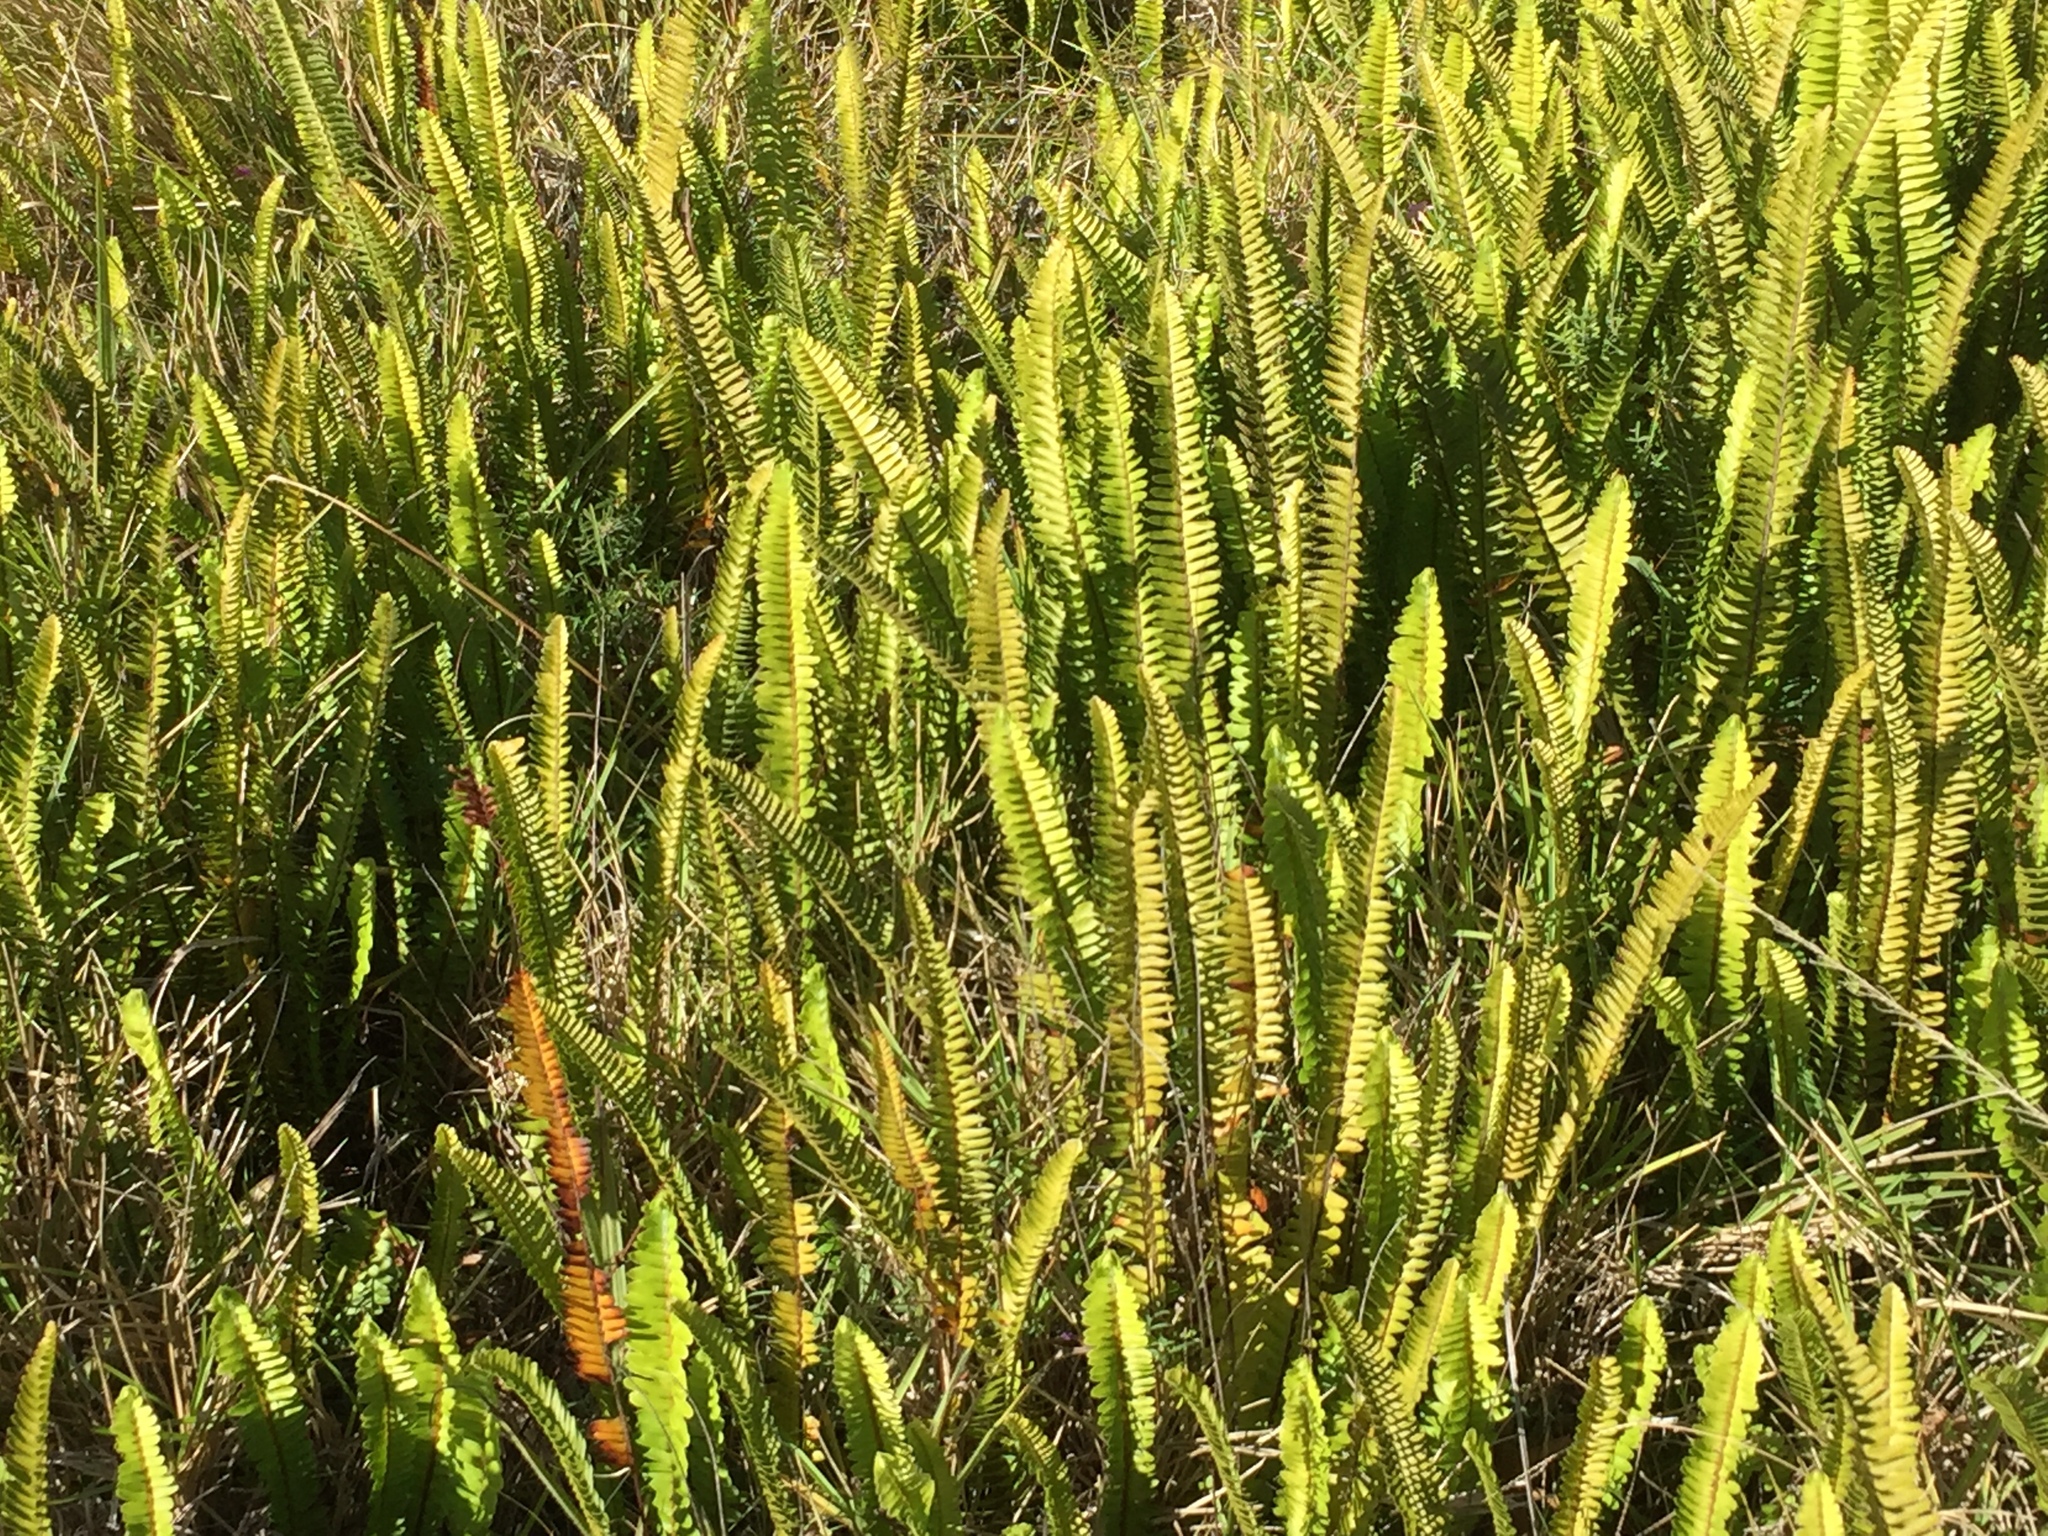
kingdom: Plantae
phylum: Tracheophyta
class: Polypodiopsida
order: Polypodiales
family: Nephrolepidaceae
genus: Nephrolepis
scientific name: Nephrolepis cordifolia
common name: Narrow swordfern
